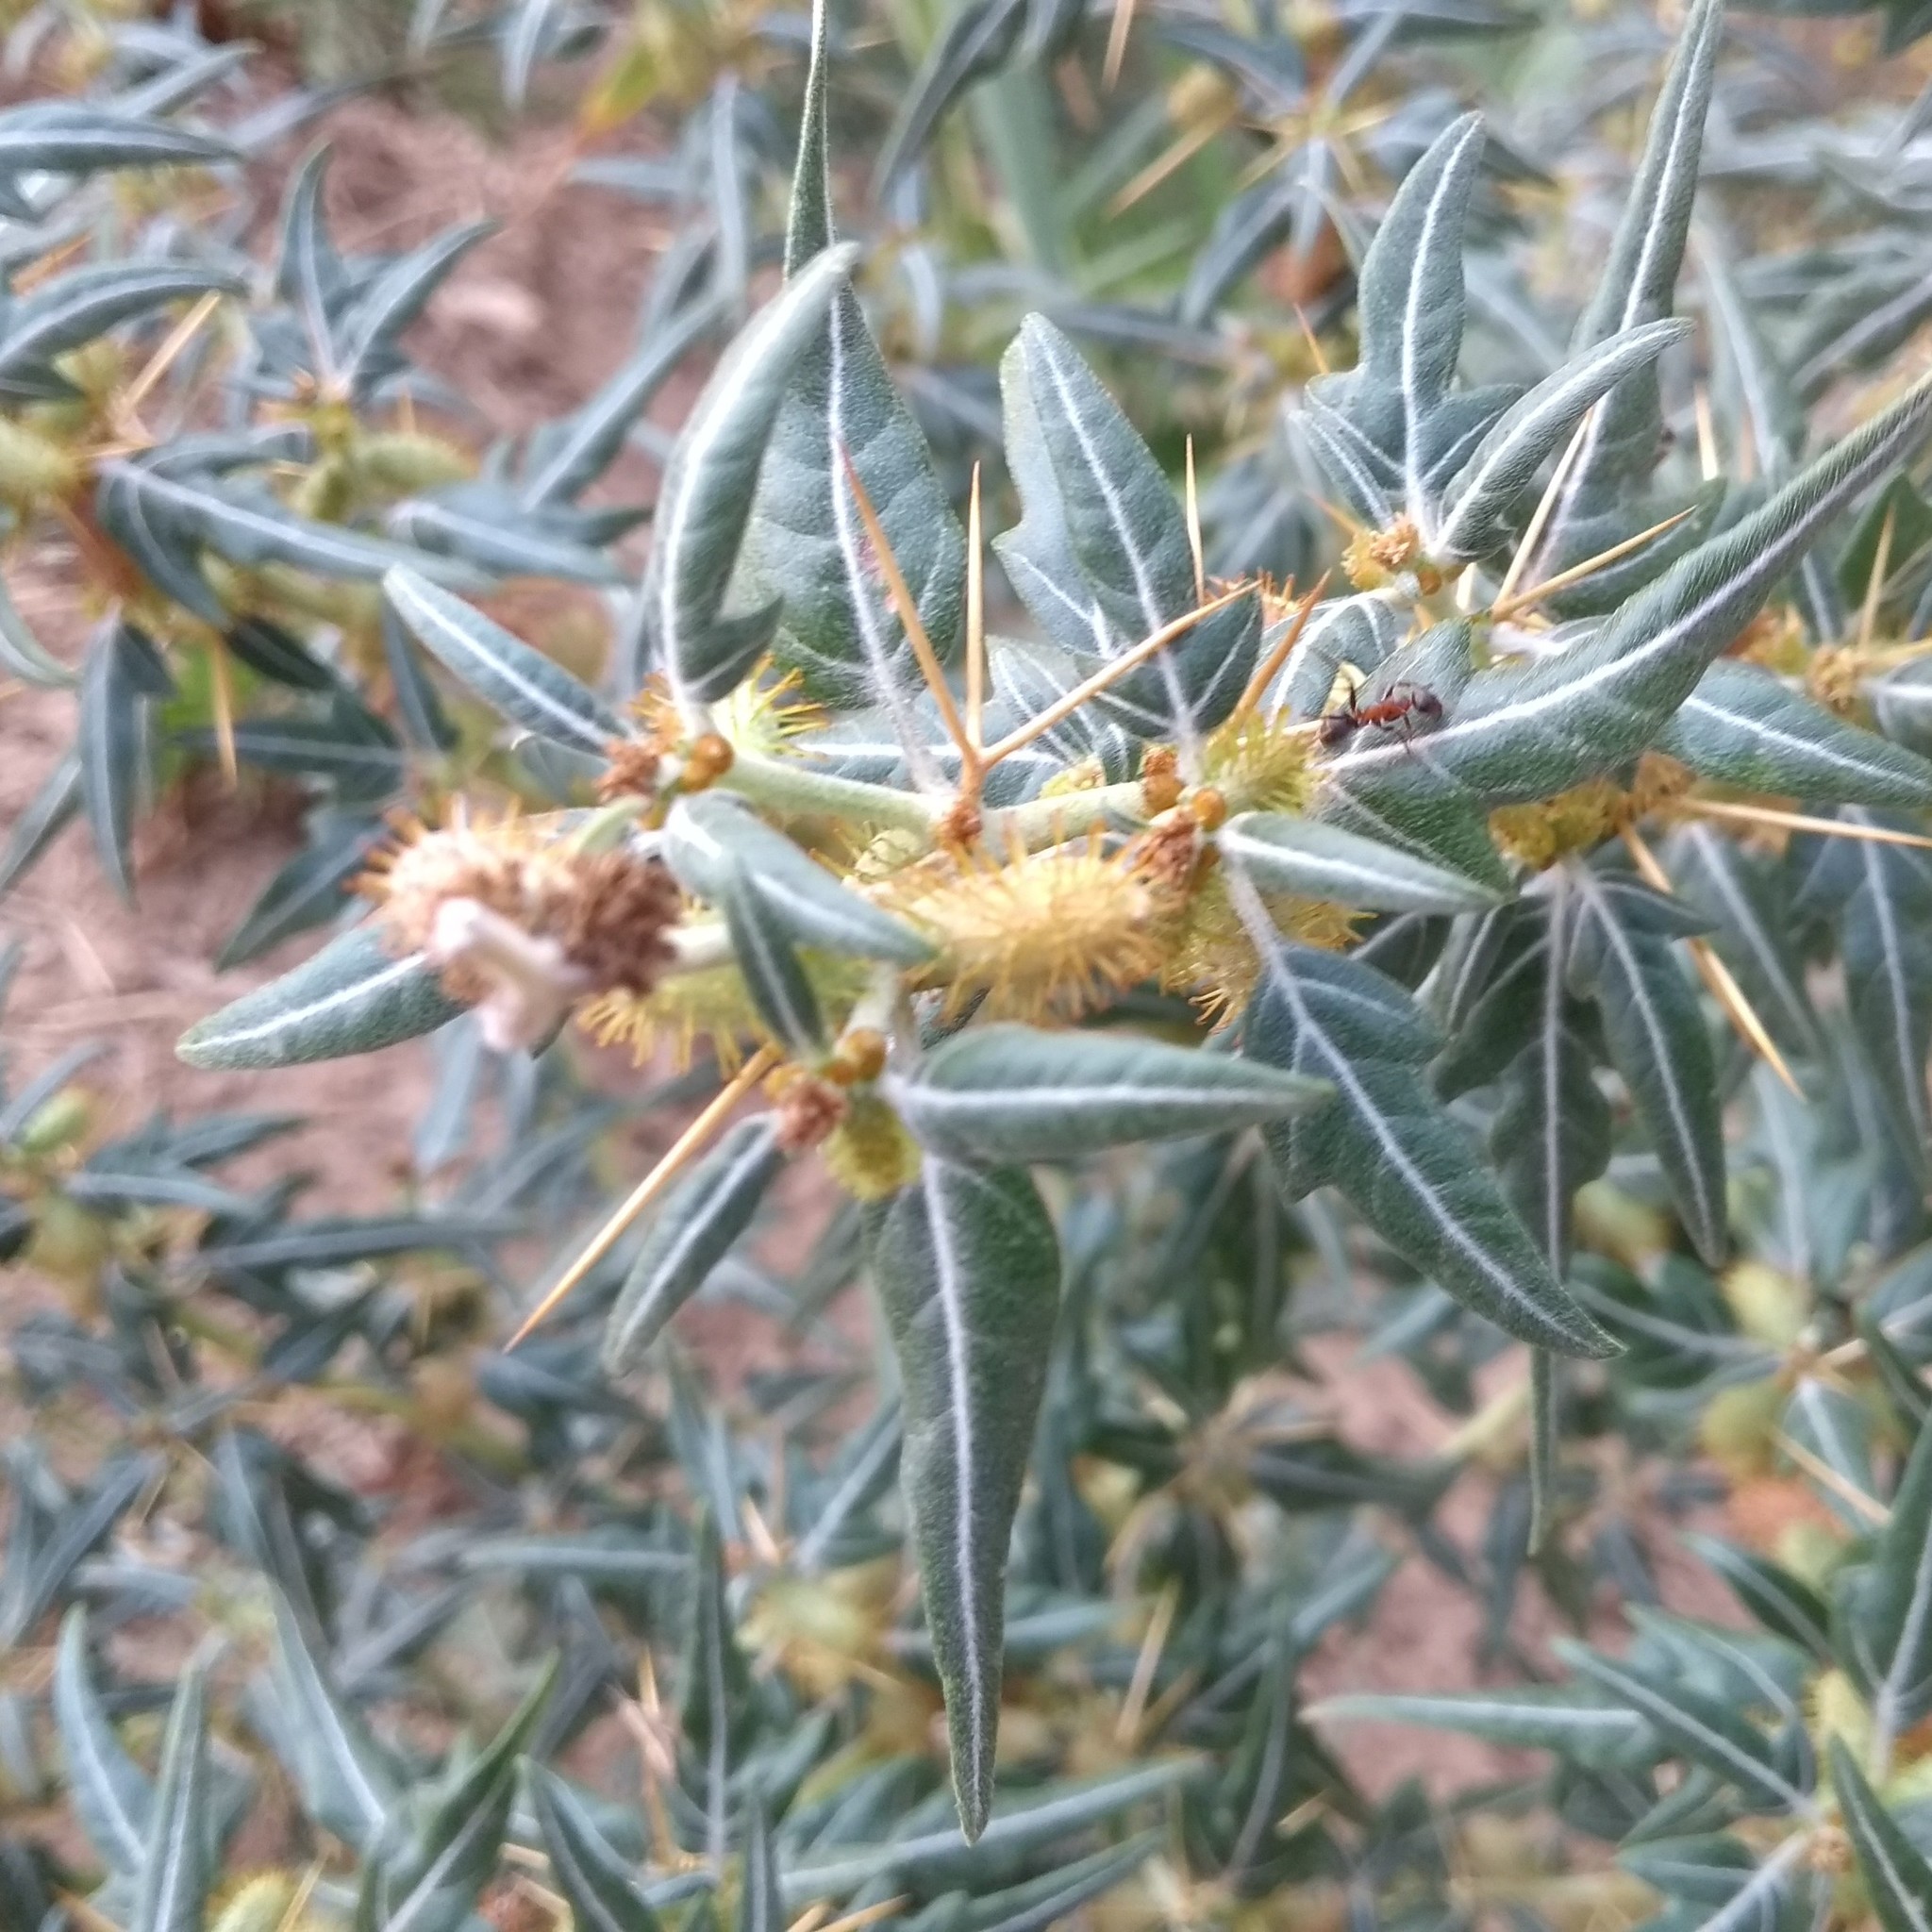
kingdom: Plantae
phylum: Tracheophyta
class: Magnoliopsida
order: Asterales
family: Asteraceae
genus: Xanthium
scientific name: Xanthium spinosum
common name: Spiny cocklebur
